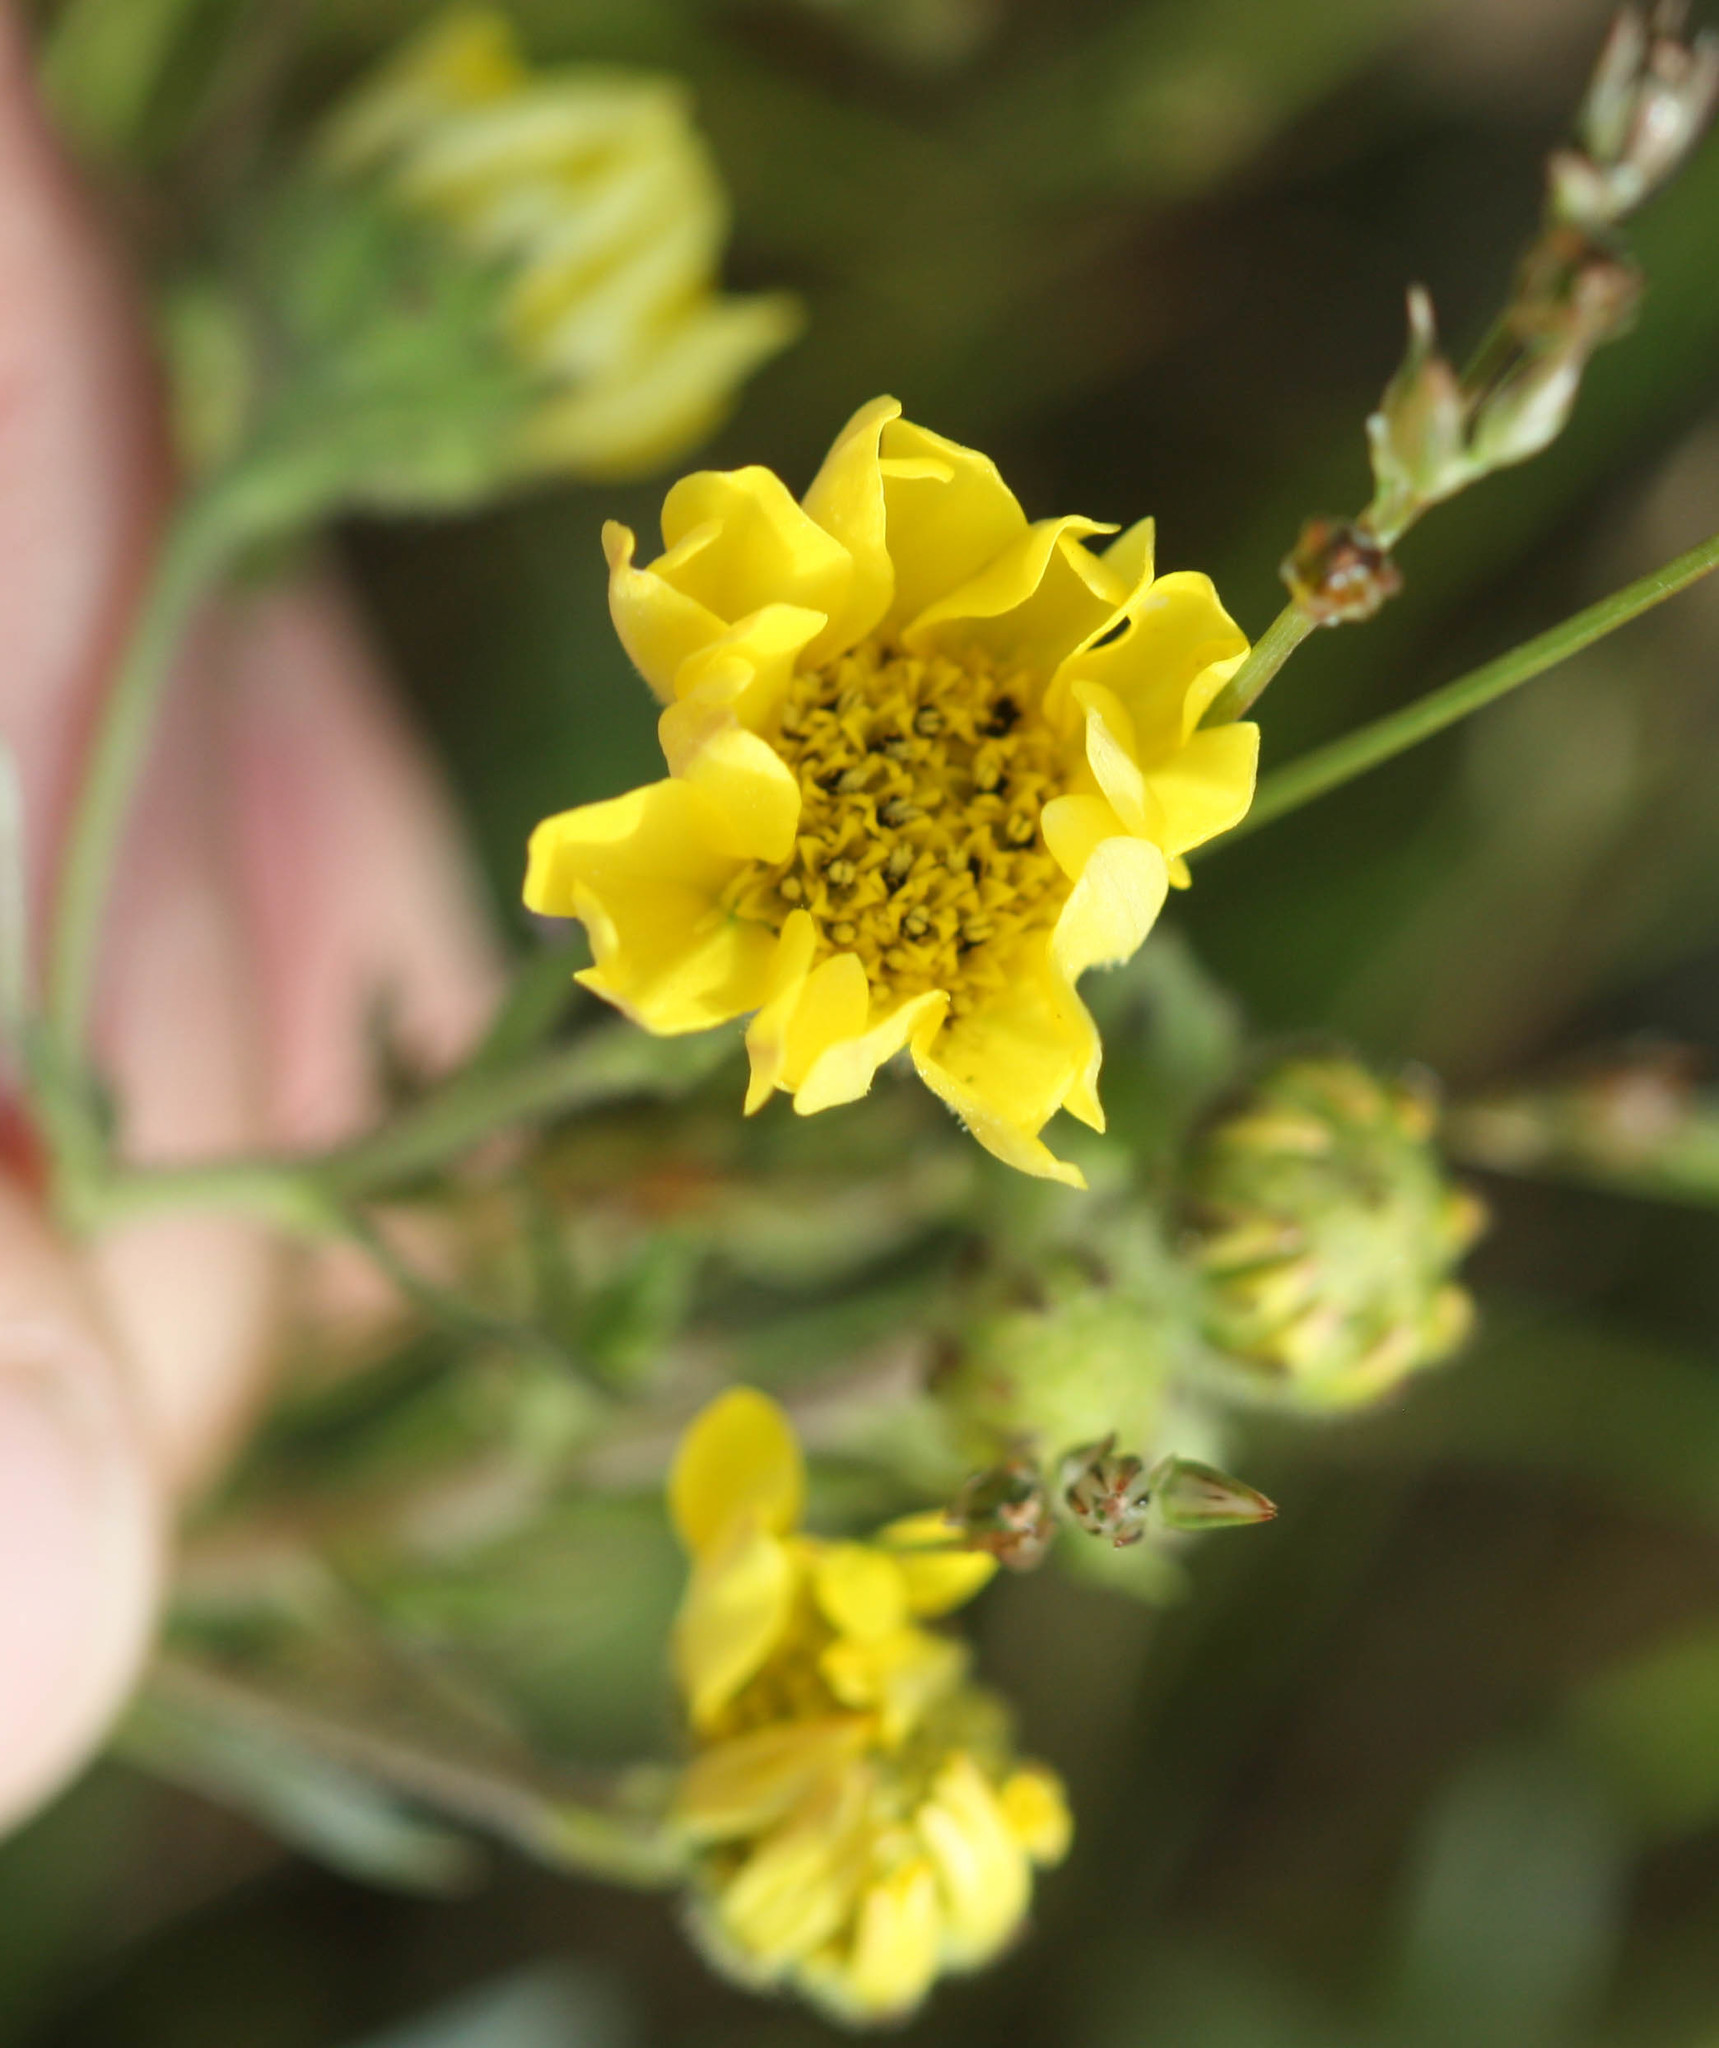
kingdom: Plantae
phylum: Tracheophyta
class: Magnoliopsida
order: Asterales
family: Asteraceae
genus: Hemizonia
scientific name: Hemizonia congesta
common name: Hayfield tarweed
